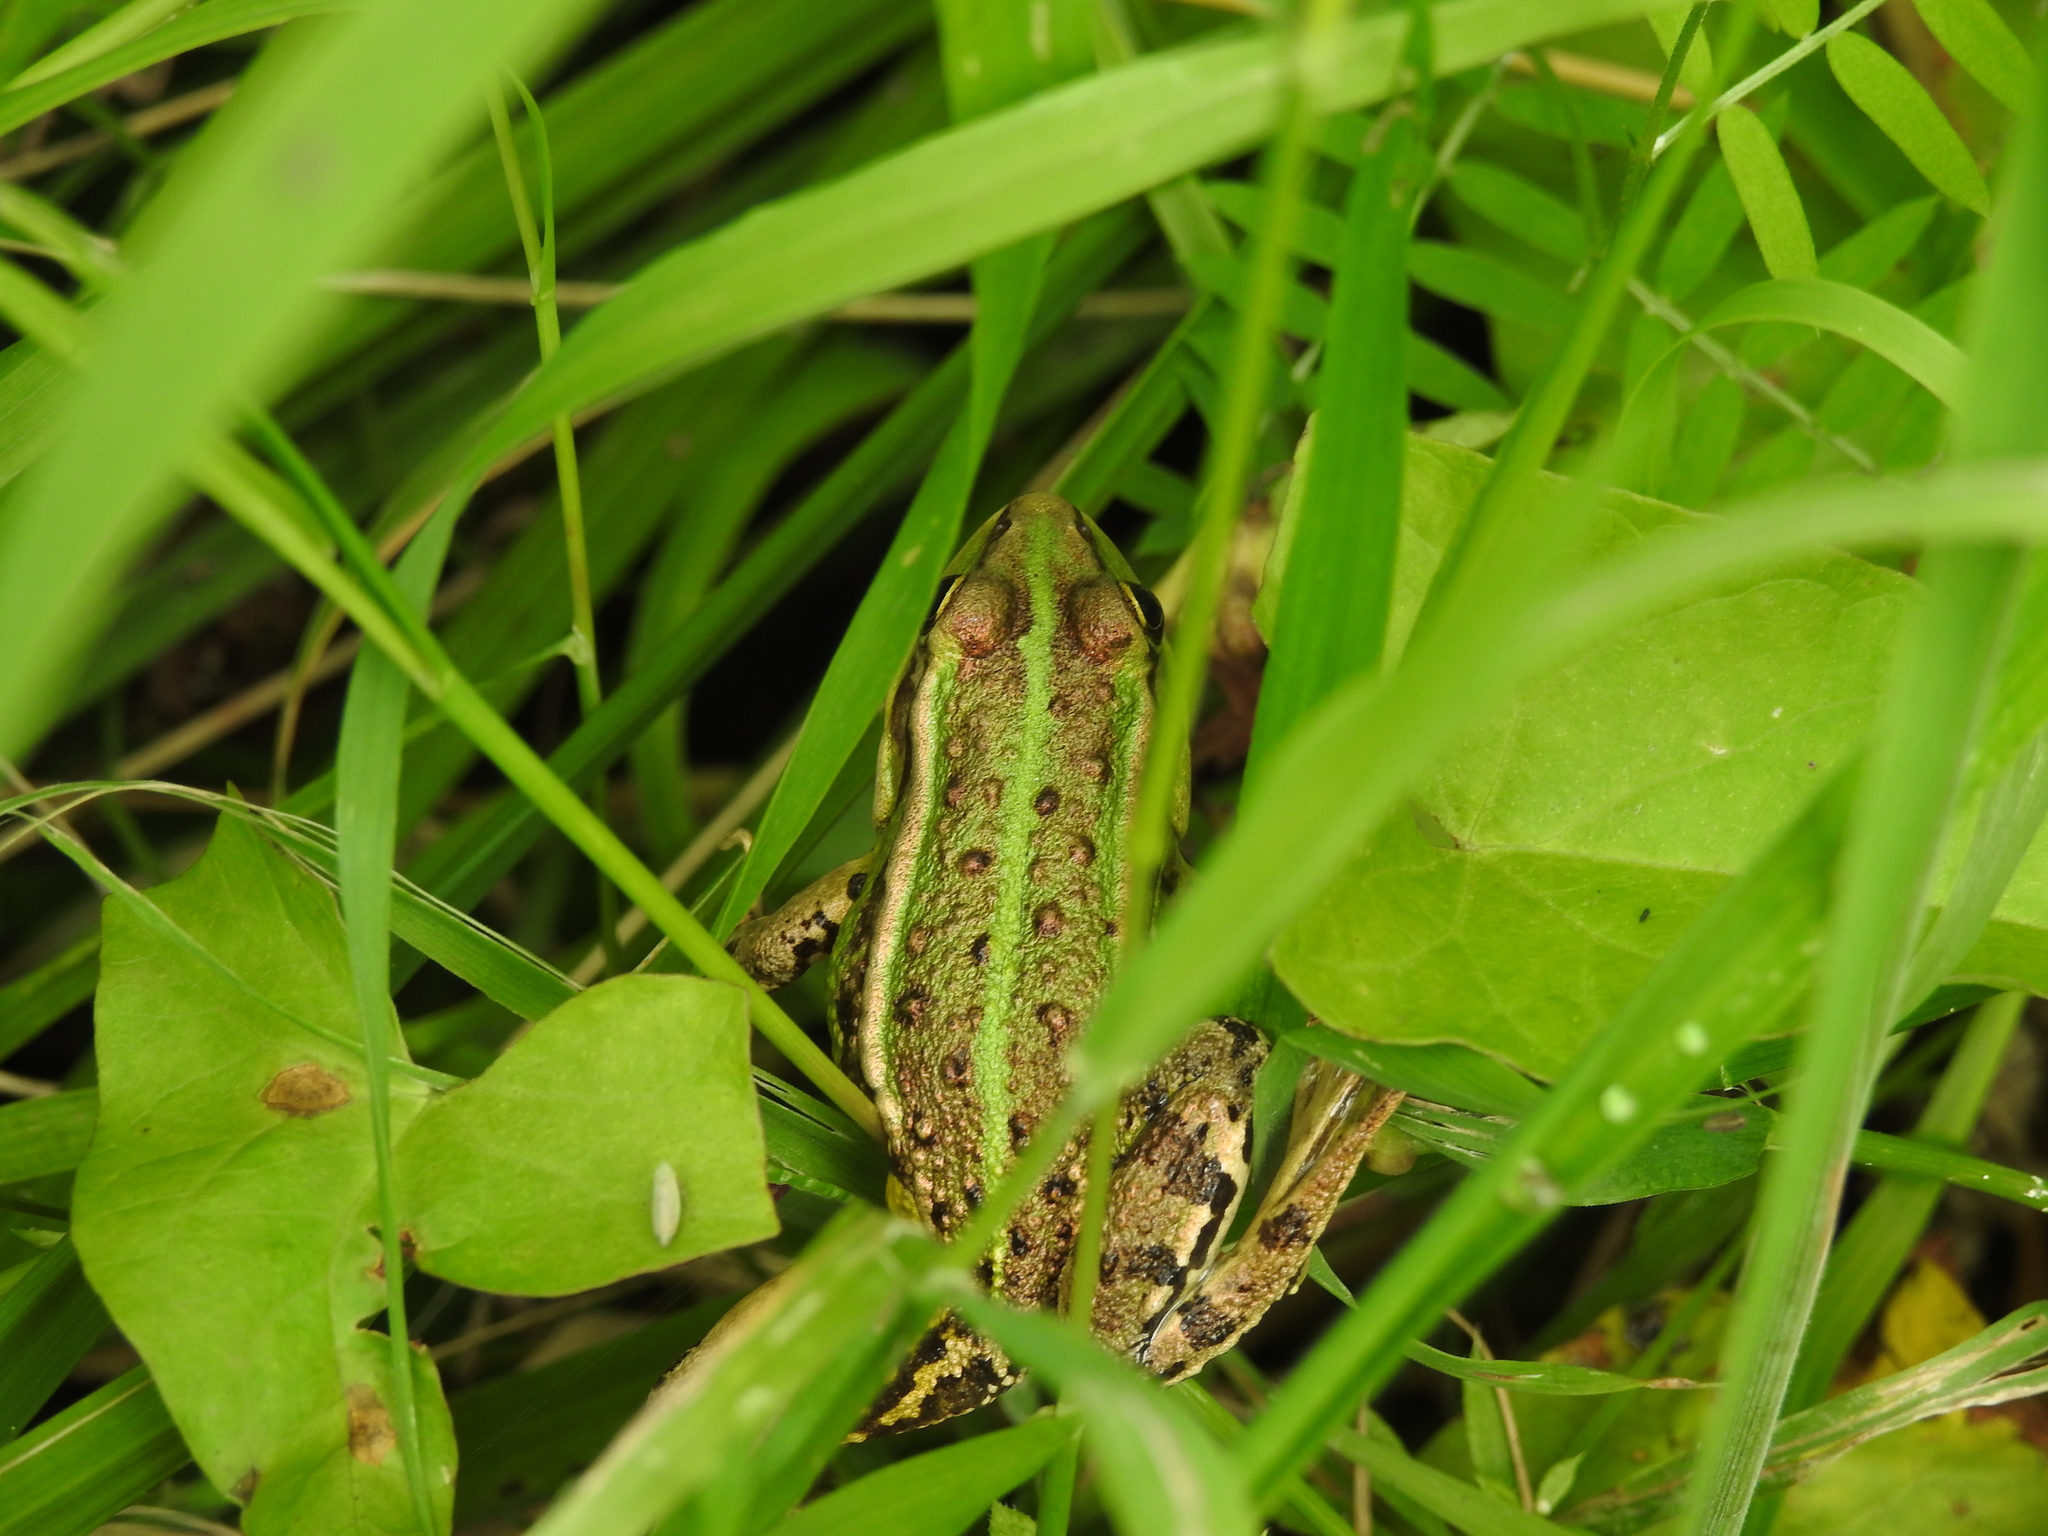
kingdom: Animalia
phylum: Chordata
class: Amphibia
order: Anura
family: Ranidae
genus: Pelophylax
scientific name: Pelophylax
